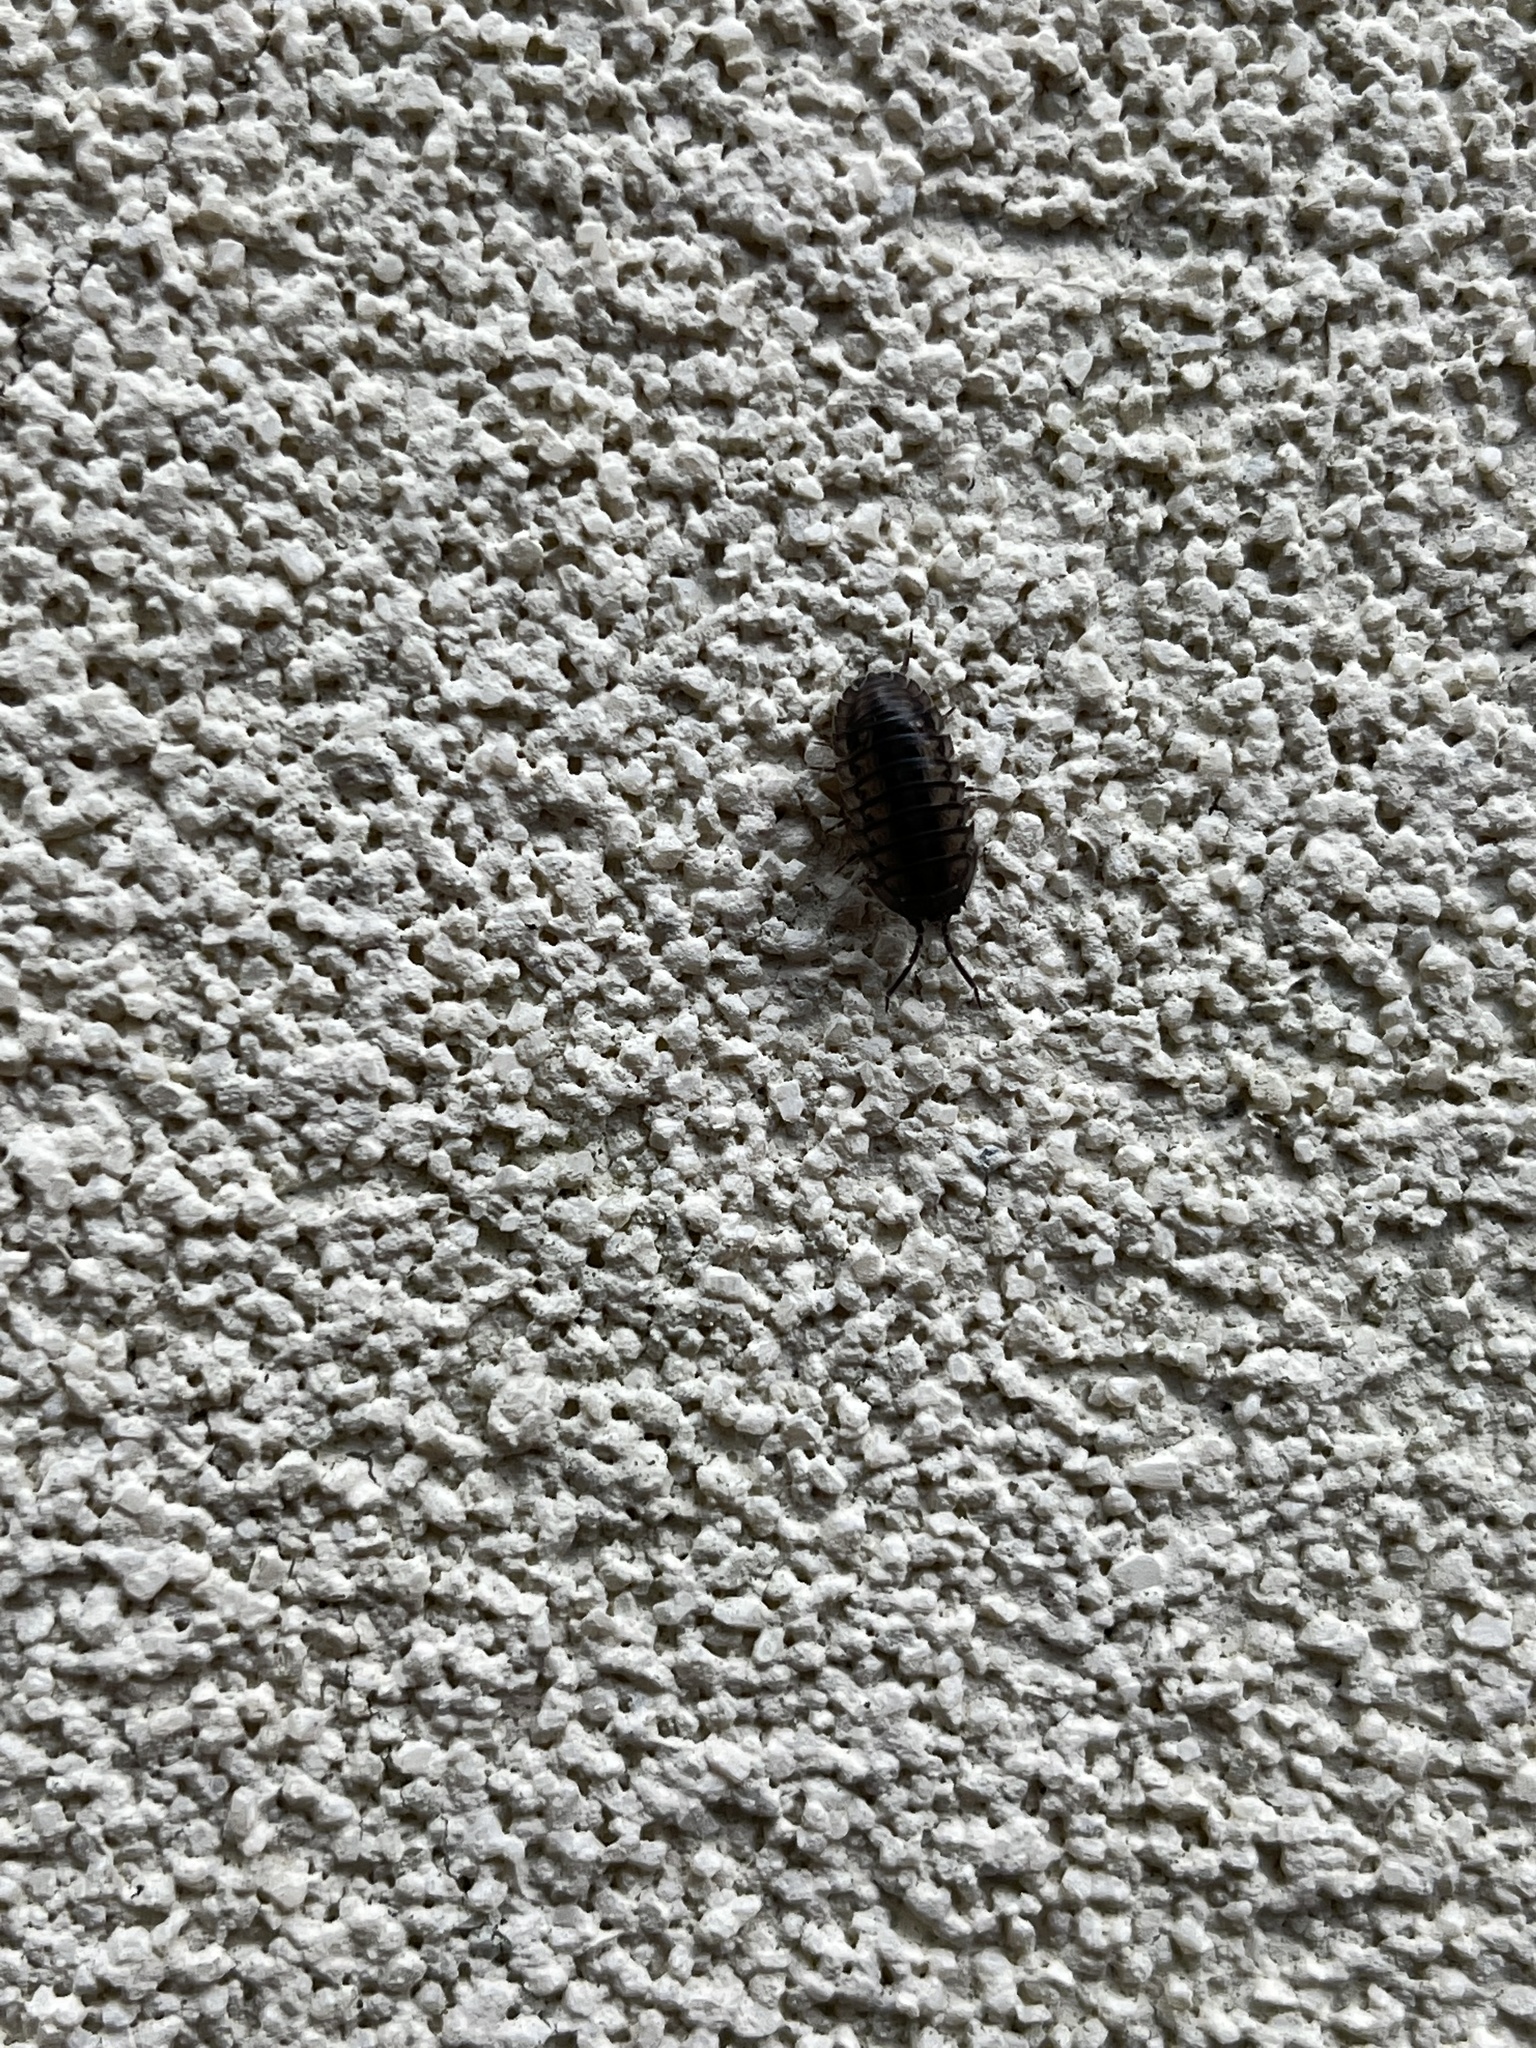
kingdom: Animalia
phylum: Arthropoda
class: Malacostraca
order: Isopoda
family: Armadillidiidae
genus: Armadillidium
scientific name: Armadillidium nasatum
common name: Isopod
